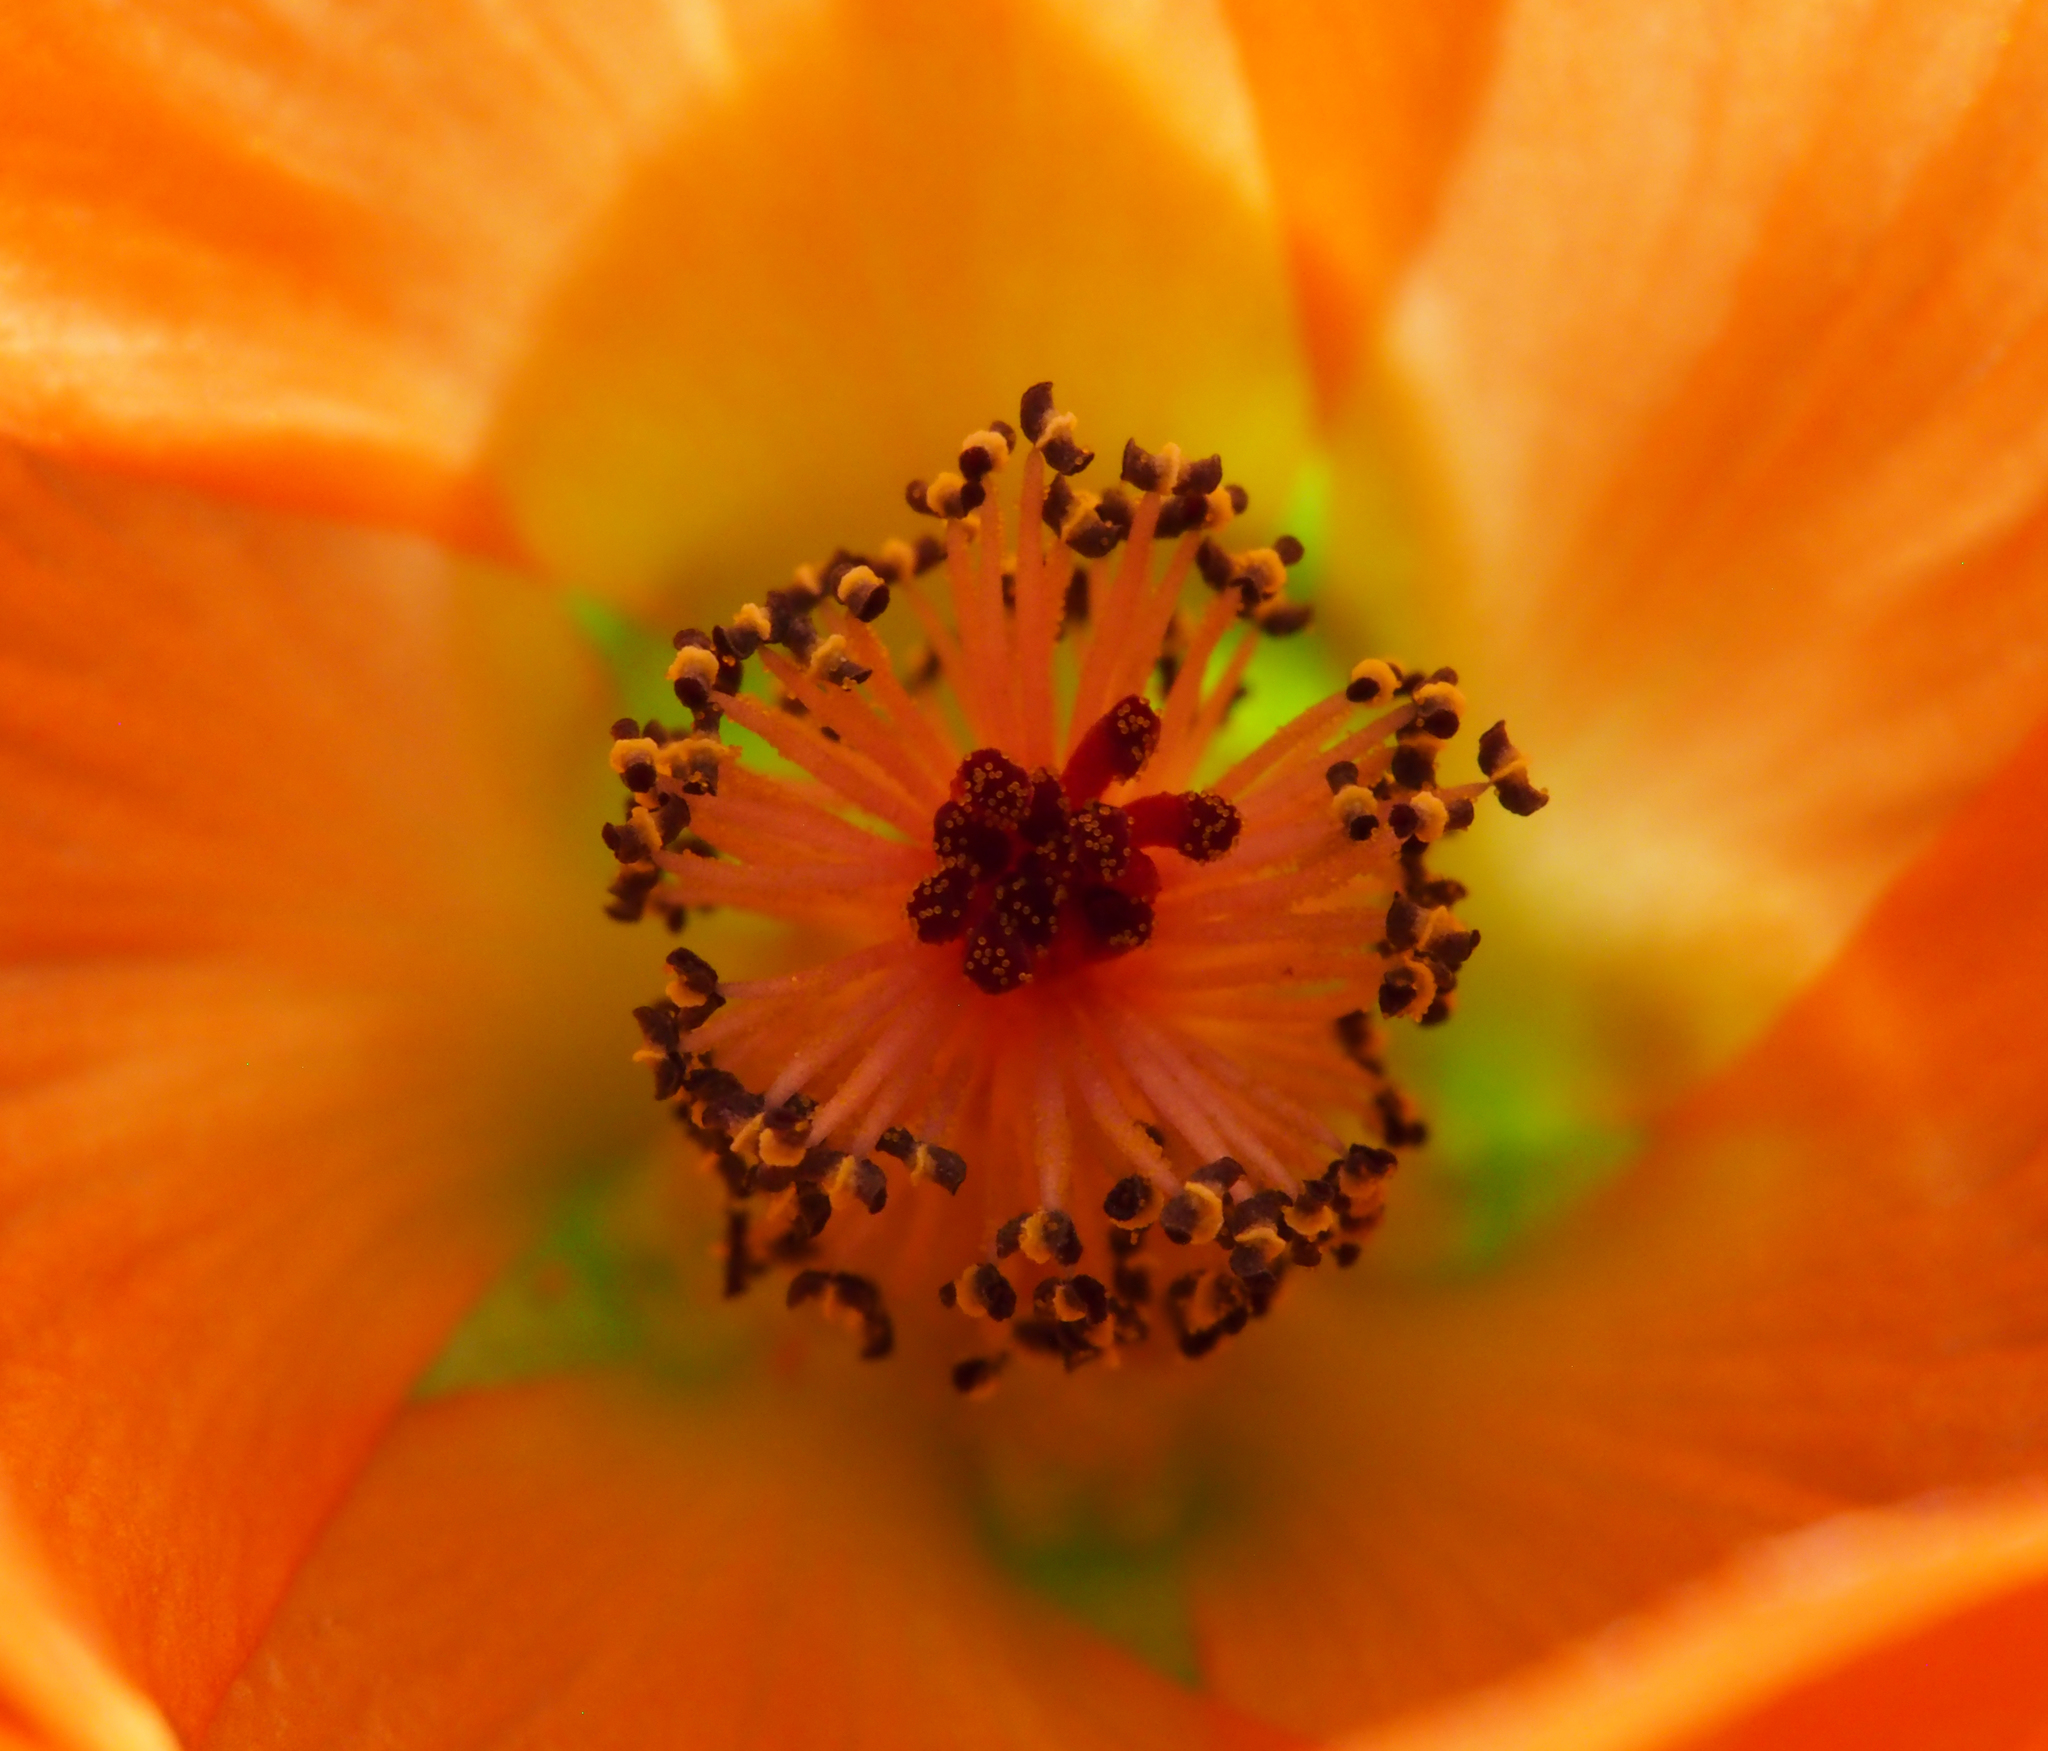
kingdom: Plantae
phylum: Tracheophyta
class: Magnoliopsida
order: Malvales
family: Malvaceae
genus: Sphaeralcea
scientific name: Sphaeralcea ambigua
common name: Apricot globe-mallow
